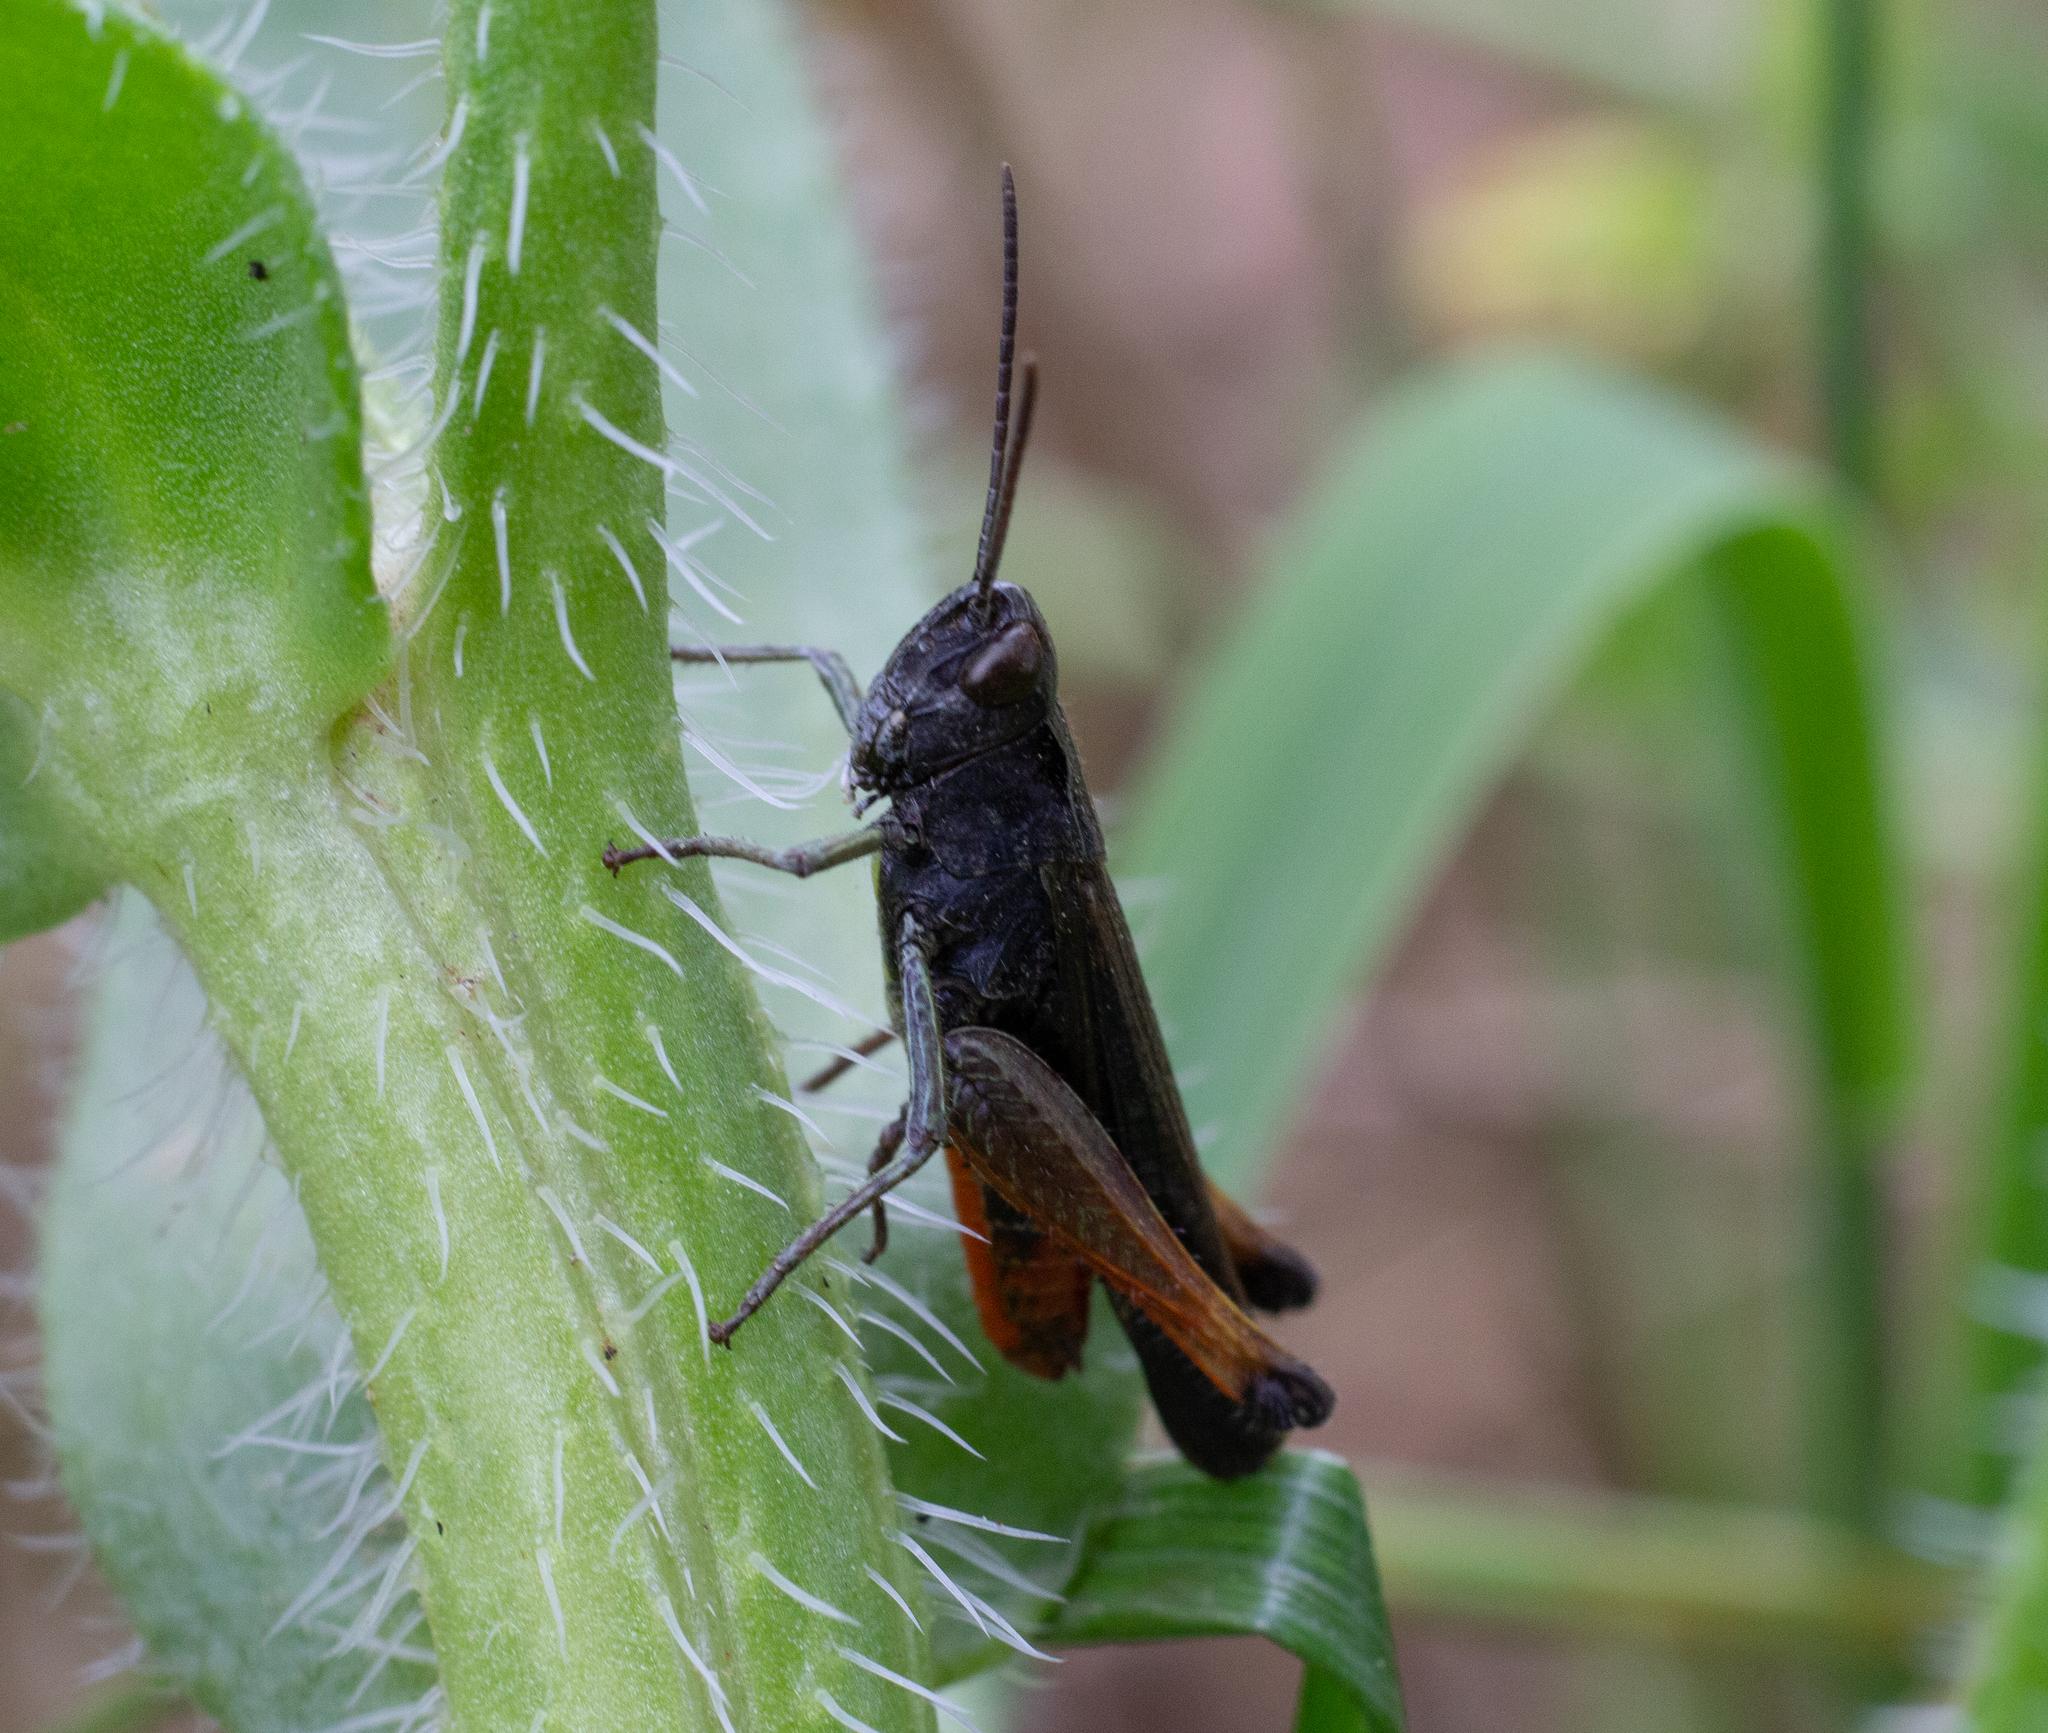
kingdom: Animalia
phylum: Arthropoda
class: Insecta
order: Orthoptera
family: Acrididae
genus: Omocestus
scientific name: Omocestus rufipes
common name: Woodland grasshopper
